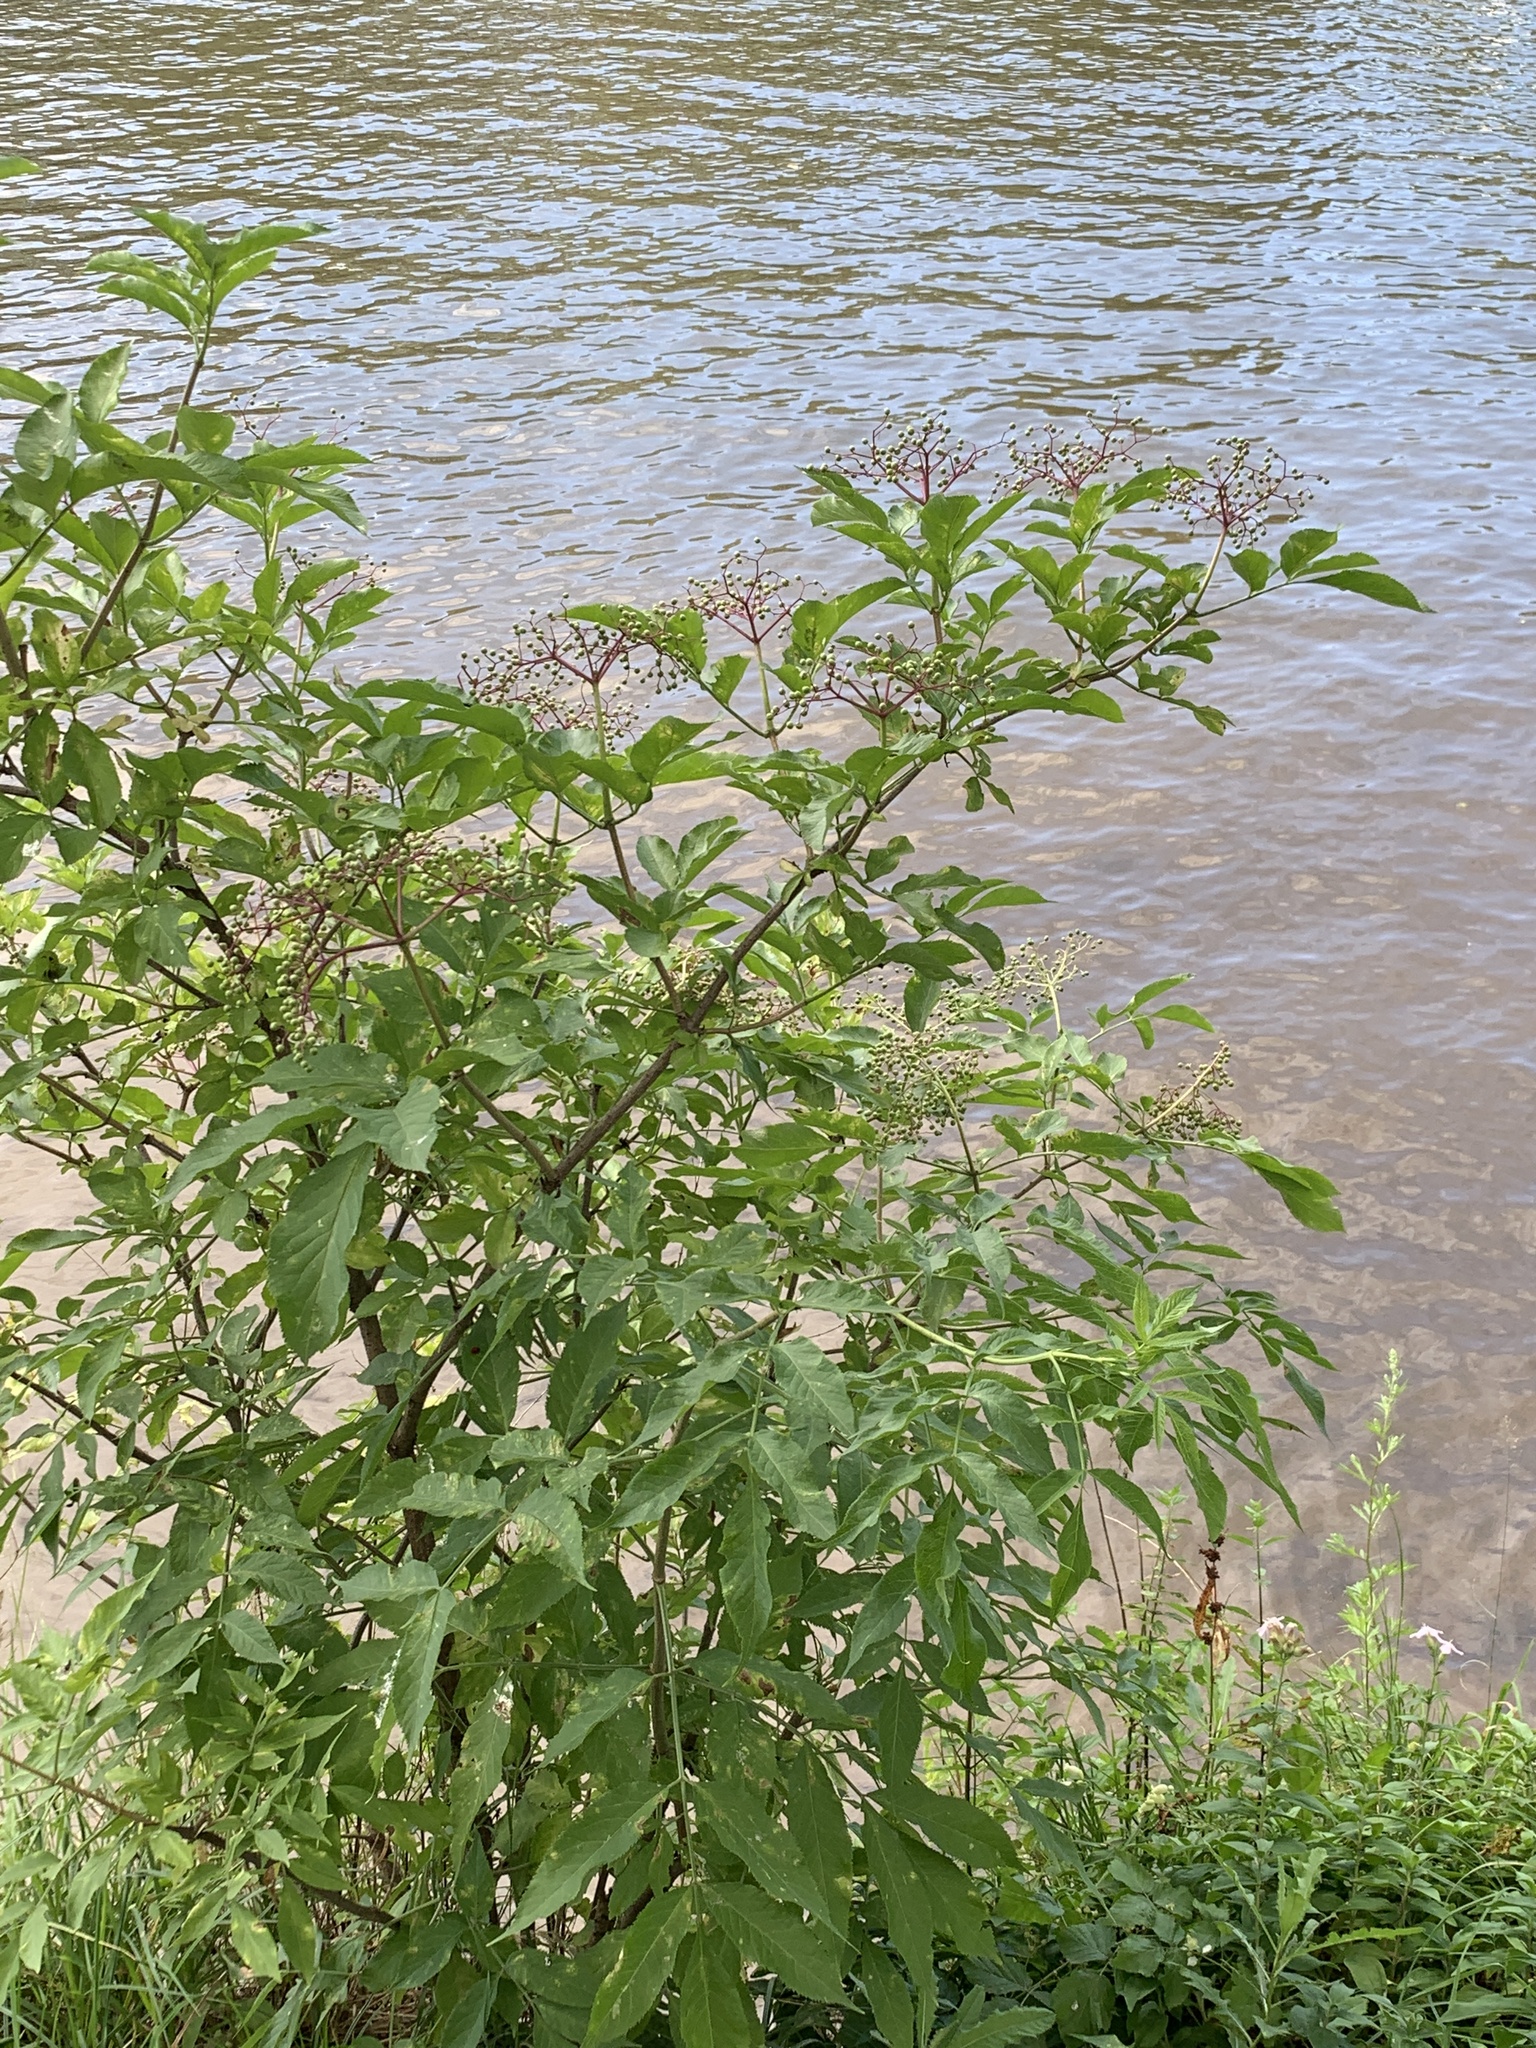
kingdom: Plantae
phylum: Tracheophyta
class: Magnoliopsida
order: Dipsacales
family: Viburnaceae
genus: Sambucus
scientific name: Sambucus nigra
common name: Elder
